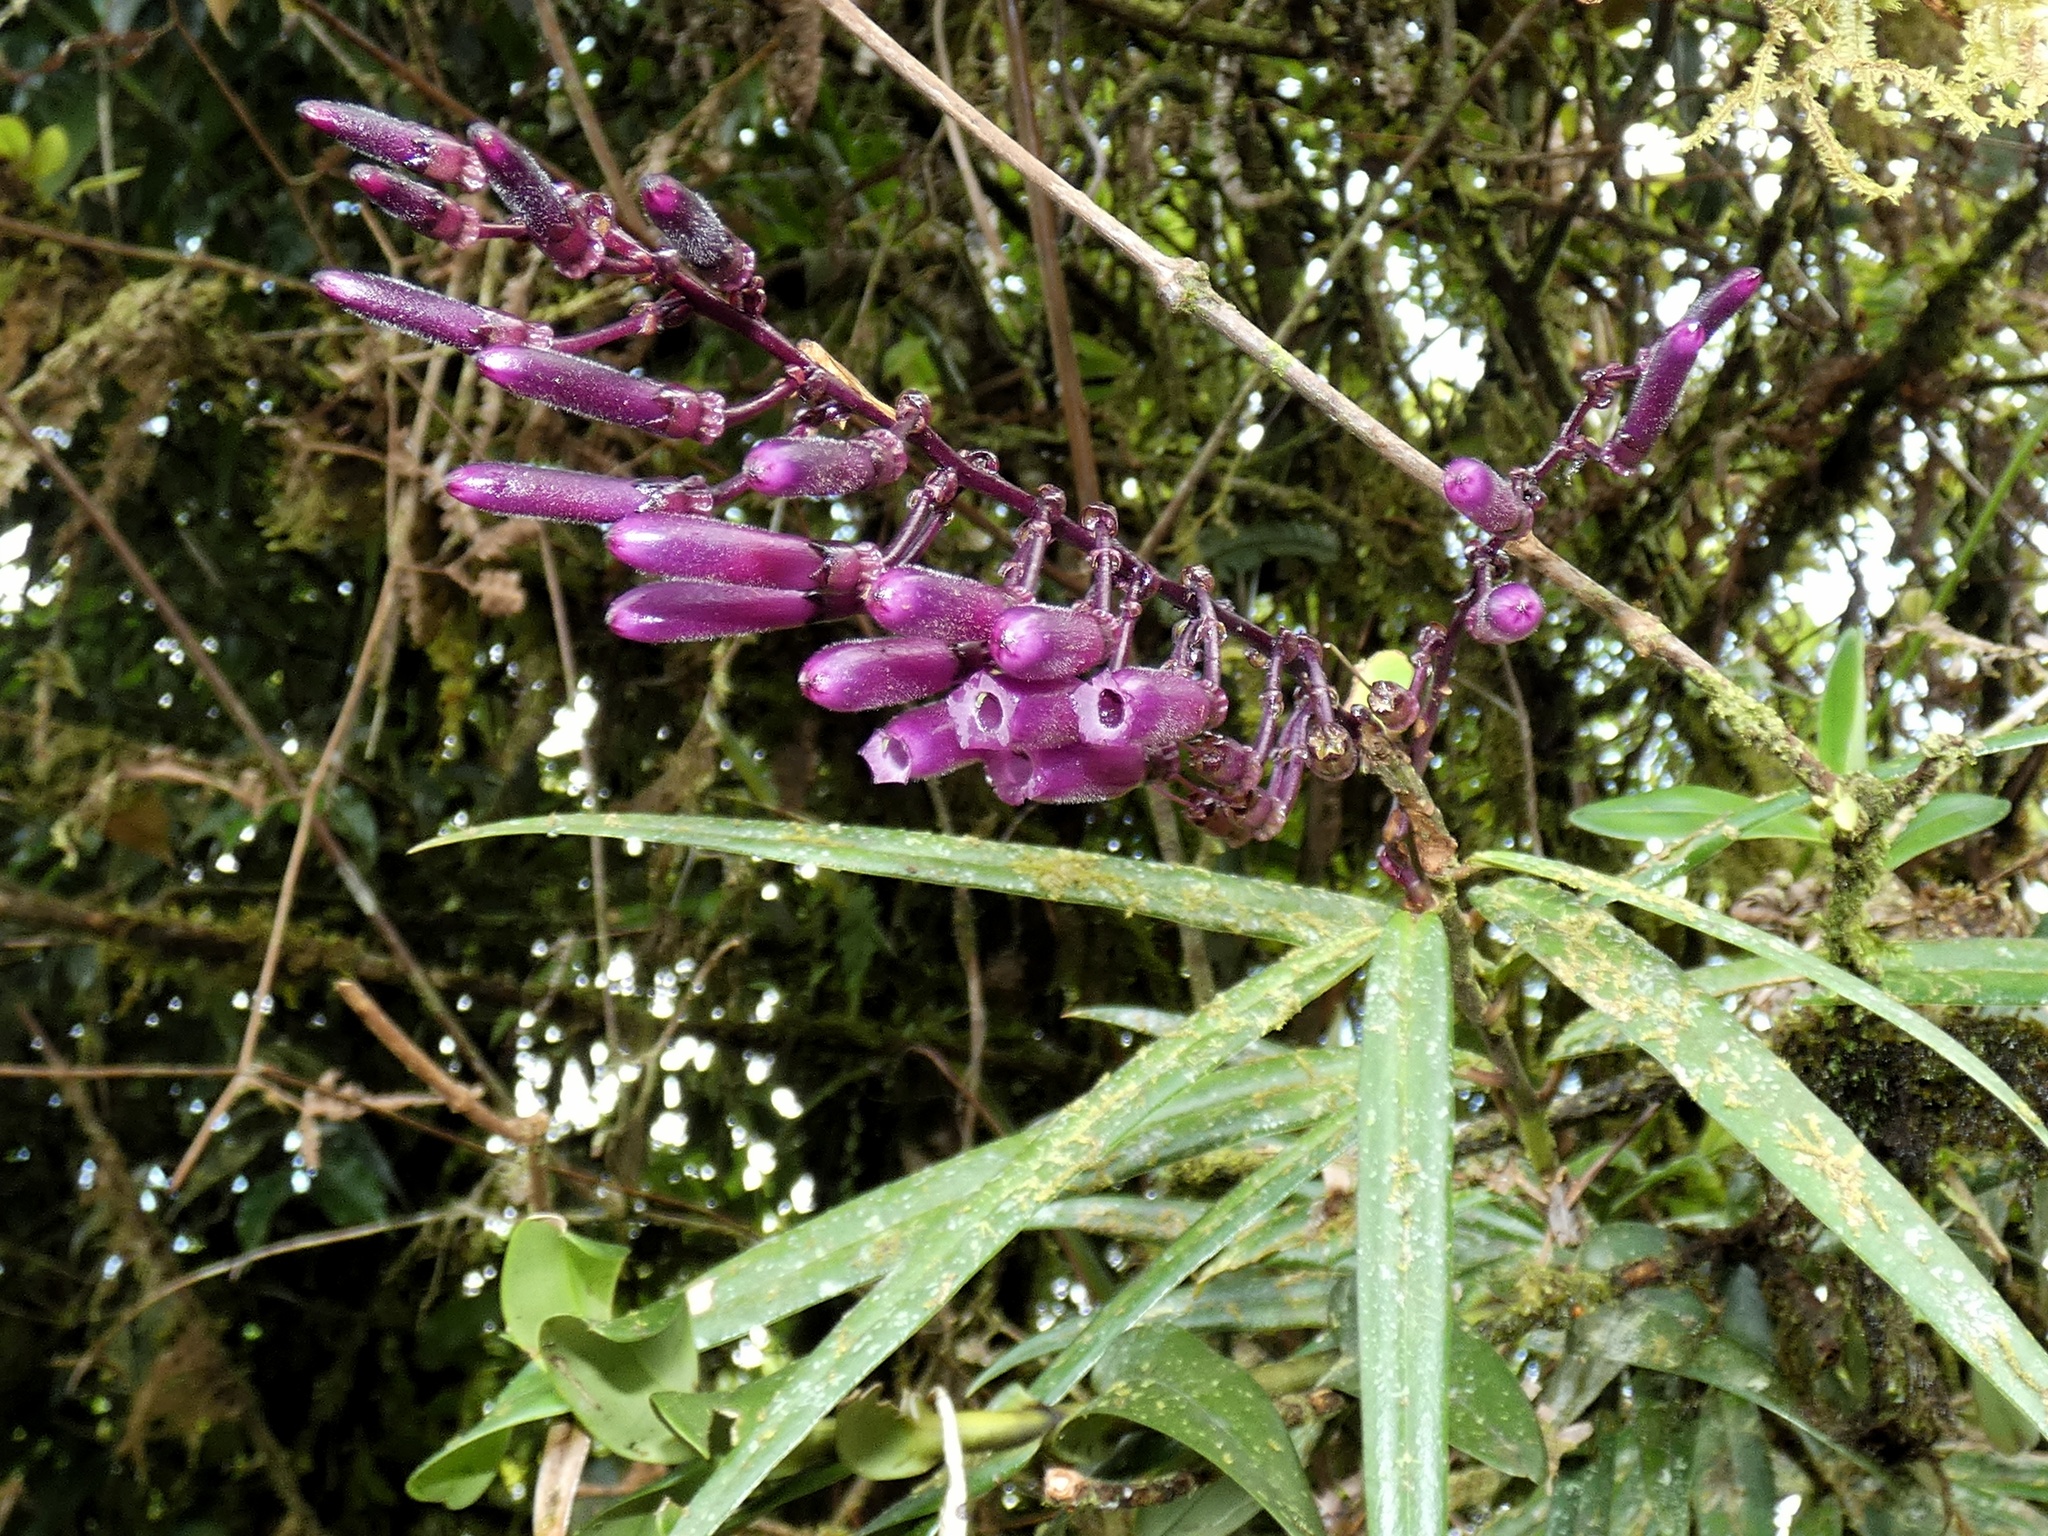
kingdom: Plantae
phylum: Tracheophyta
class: Magnoliopsida
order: Ericales
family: Ericaceae
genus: Cavendishia
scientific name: Cavendishia stenophylla
